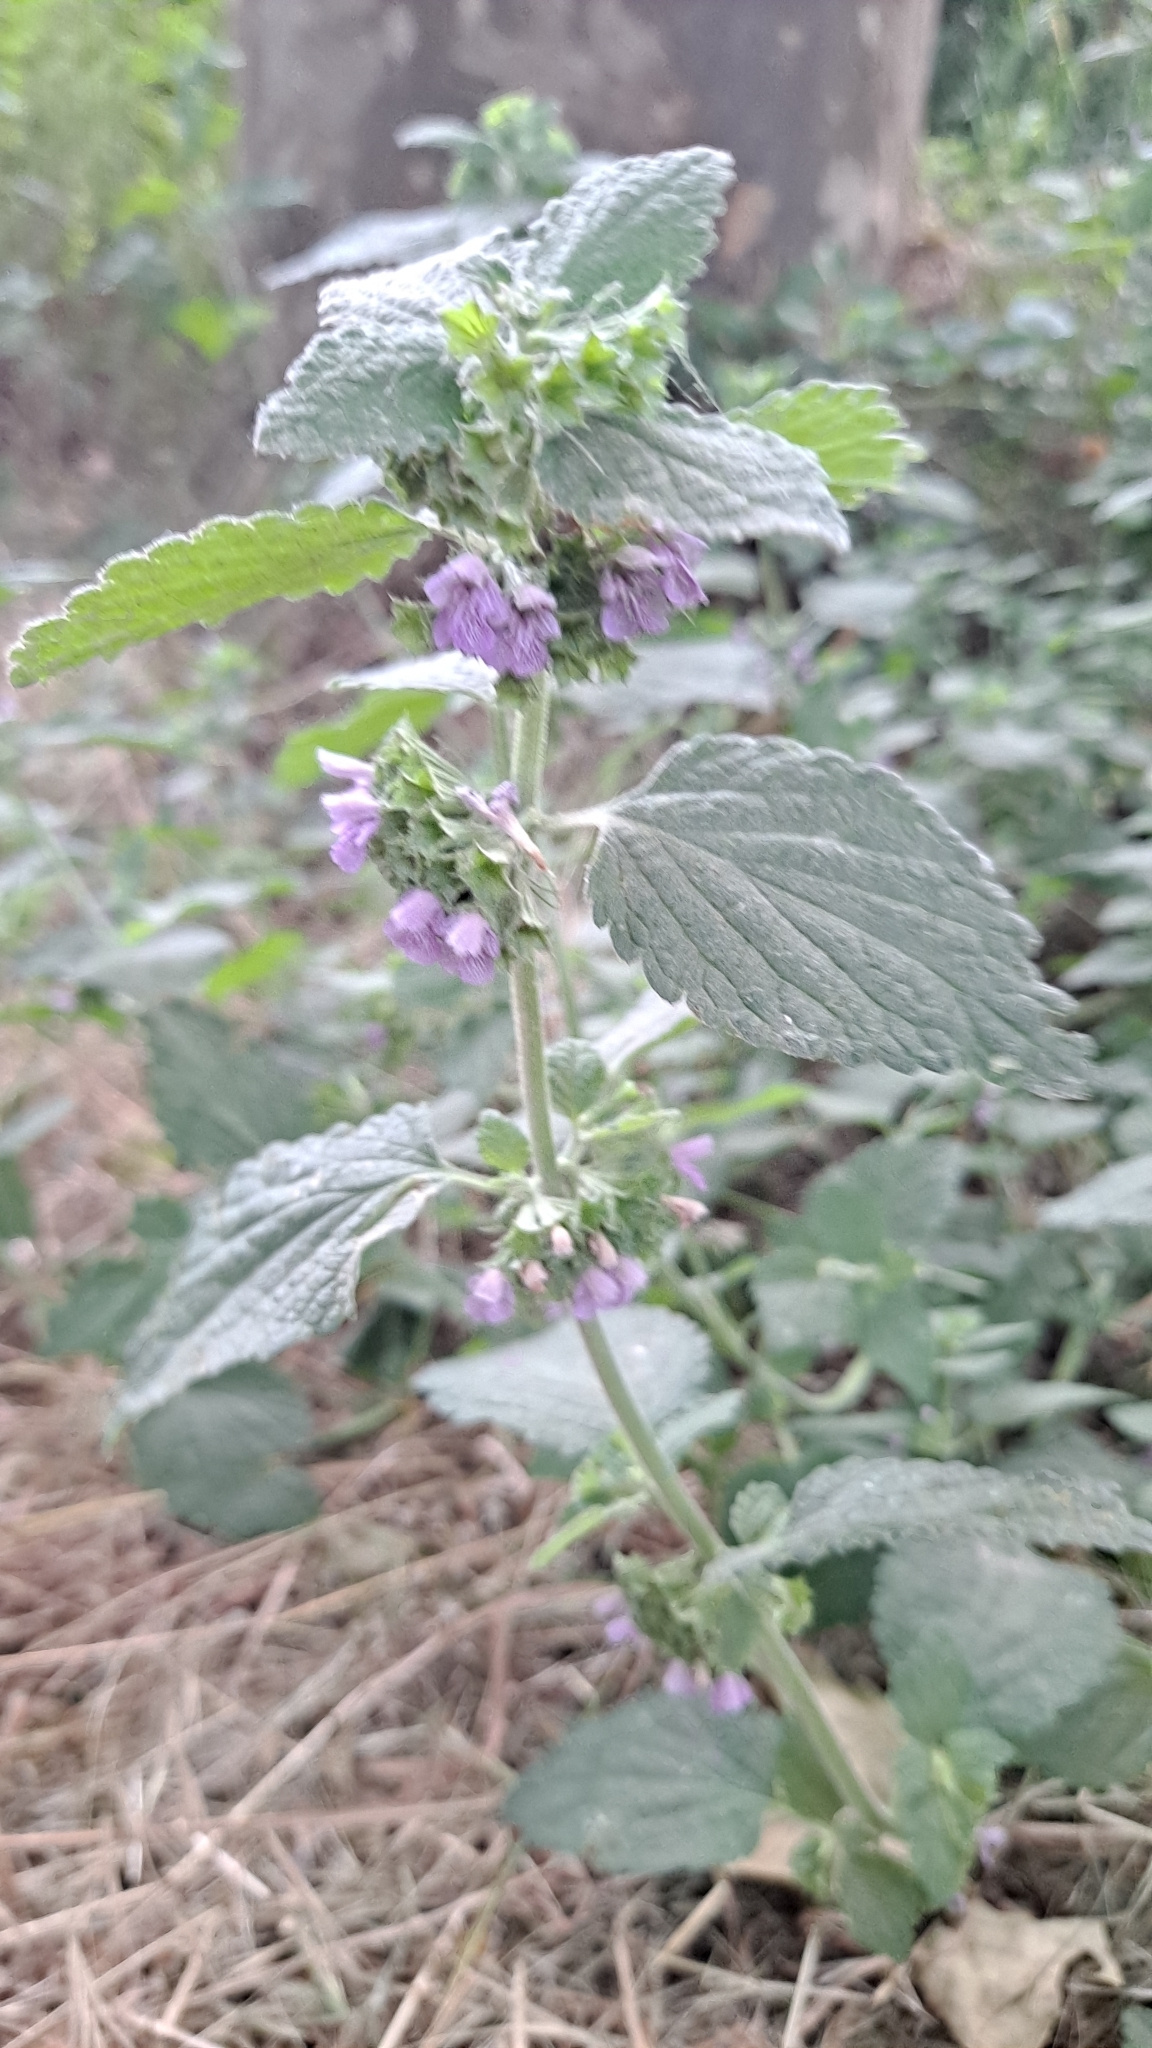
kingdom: Plantae
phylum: Tracheophyta
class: Magnoliopsida
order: Lamiales
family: Lamiaceae
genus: Ballota
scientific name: Ballota nigra
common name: Black horehound
